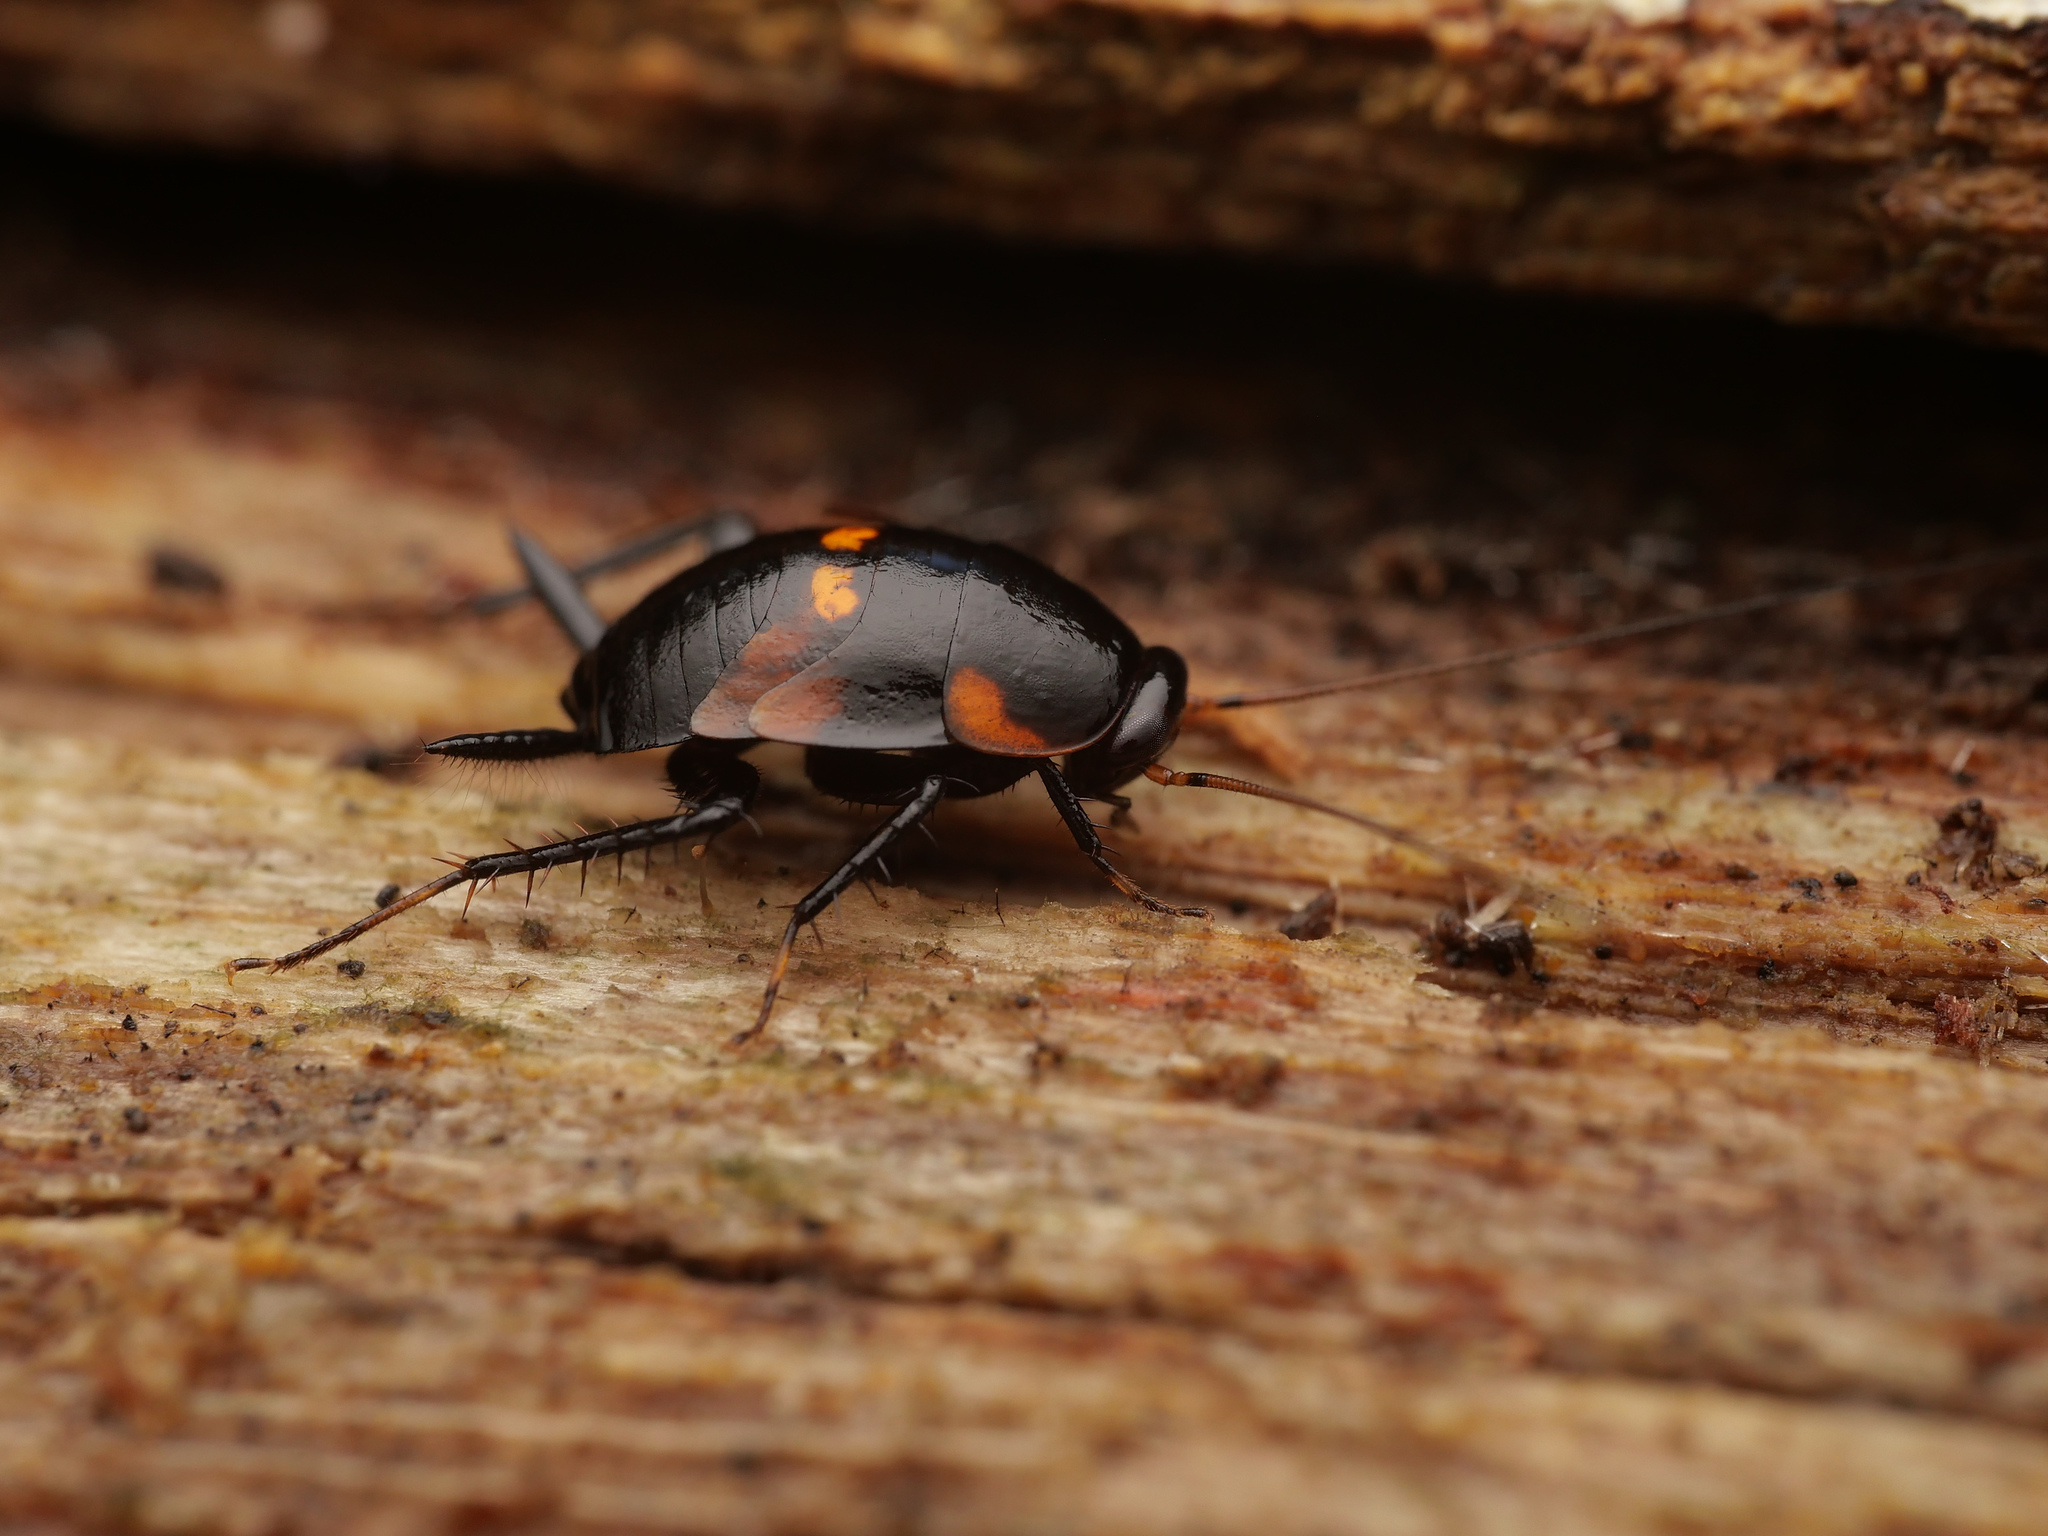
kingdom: Animalia
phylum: Arthropoda
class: Insecta
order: Blattodea
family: Ectobiidae
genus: Allacta
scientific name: Allacta bipunctata
